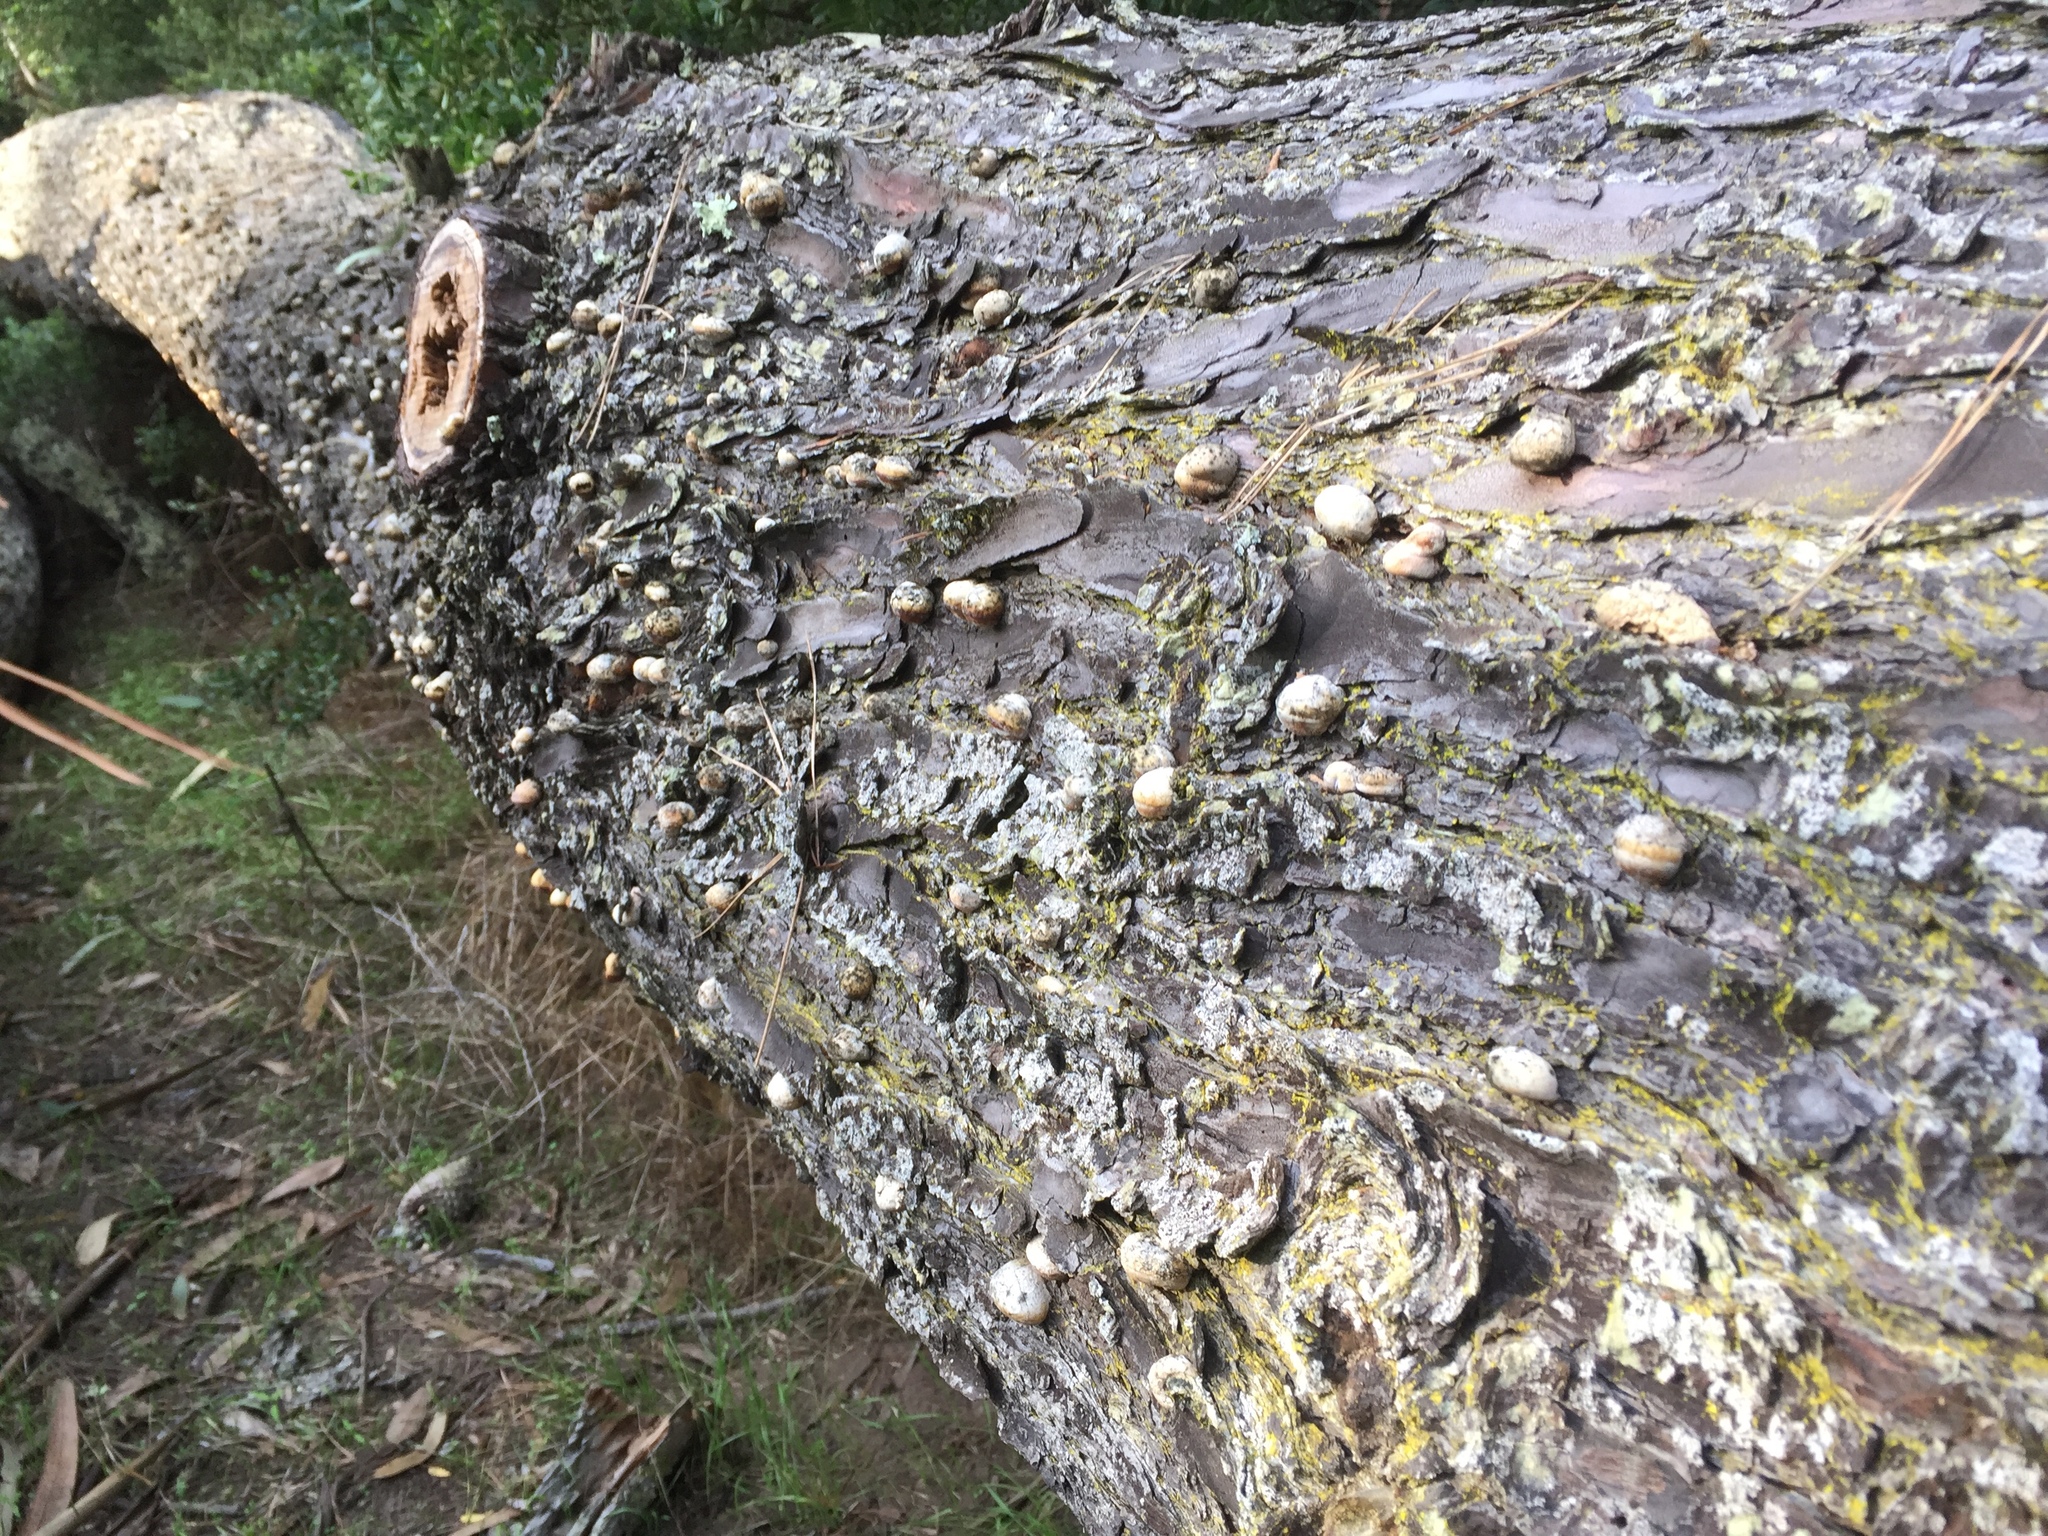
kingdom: Fungi
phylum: Basidiomycota
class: Agaricomycetes
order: Polyporales
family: Polyporaceae
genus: Cryptoporus
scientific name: Cryptoporus volvatus
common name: Veiled polypore
